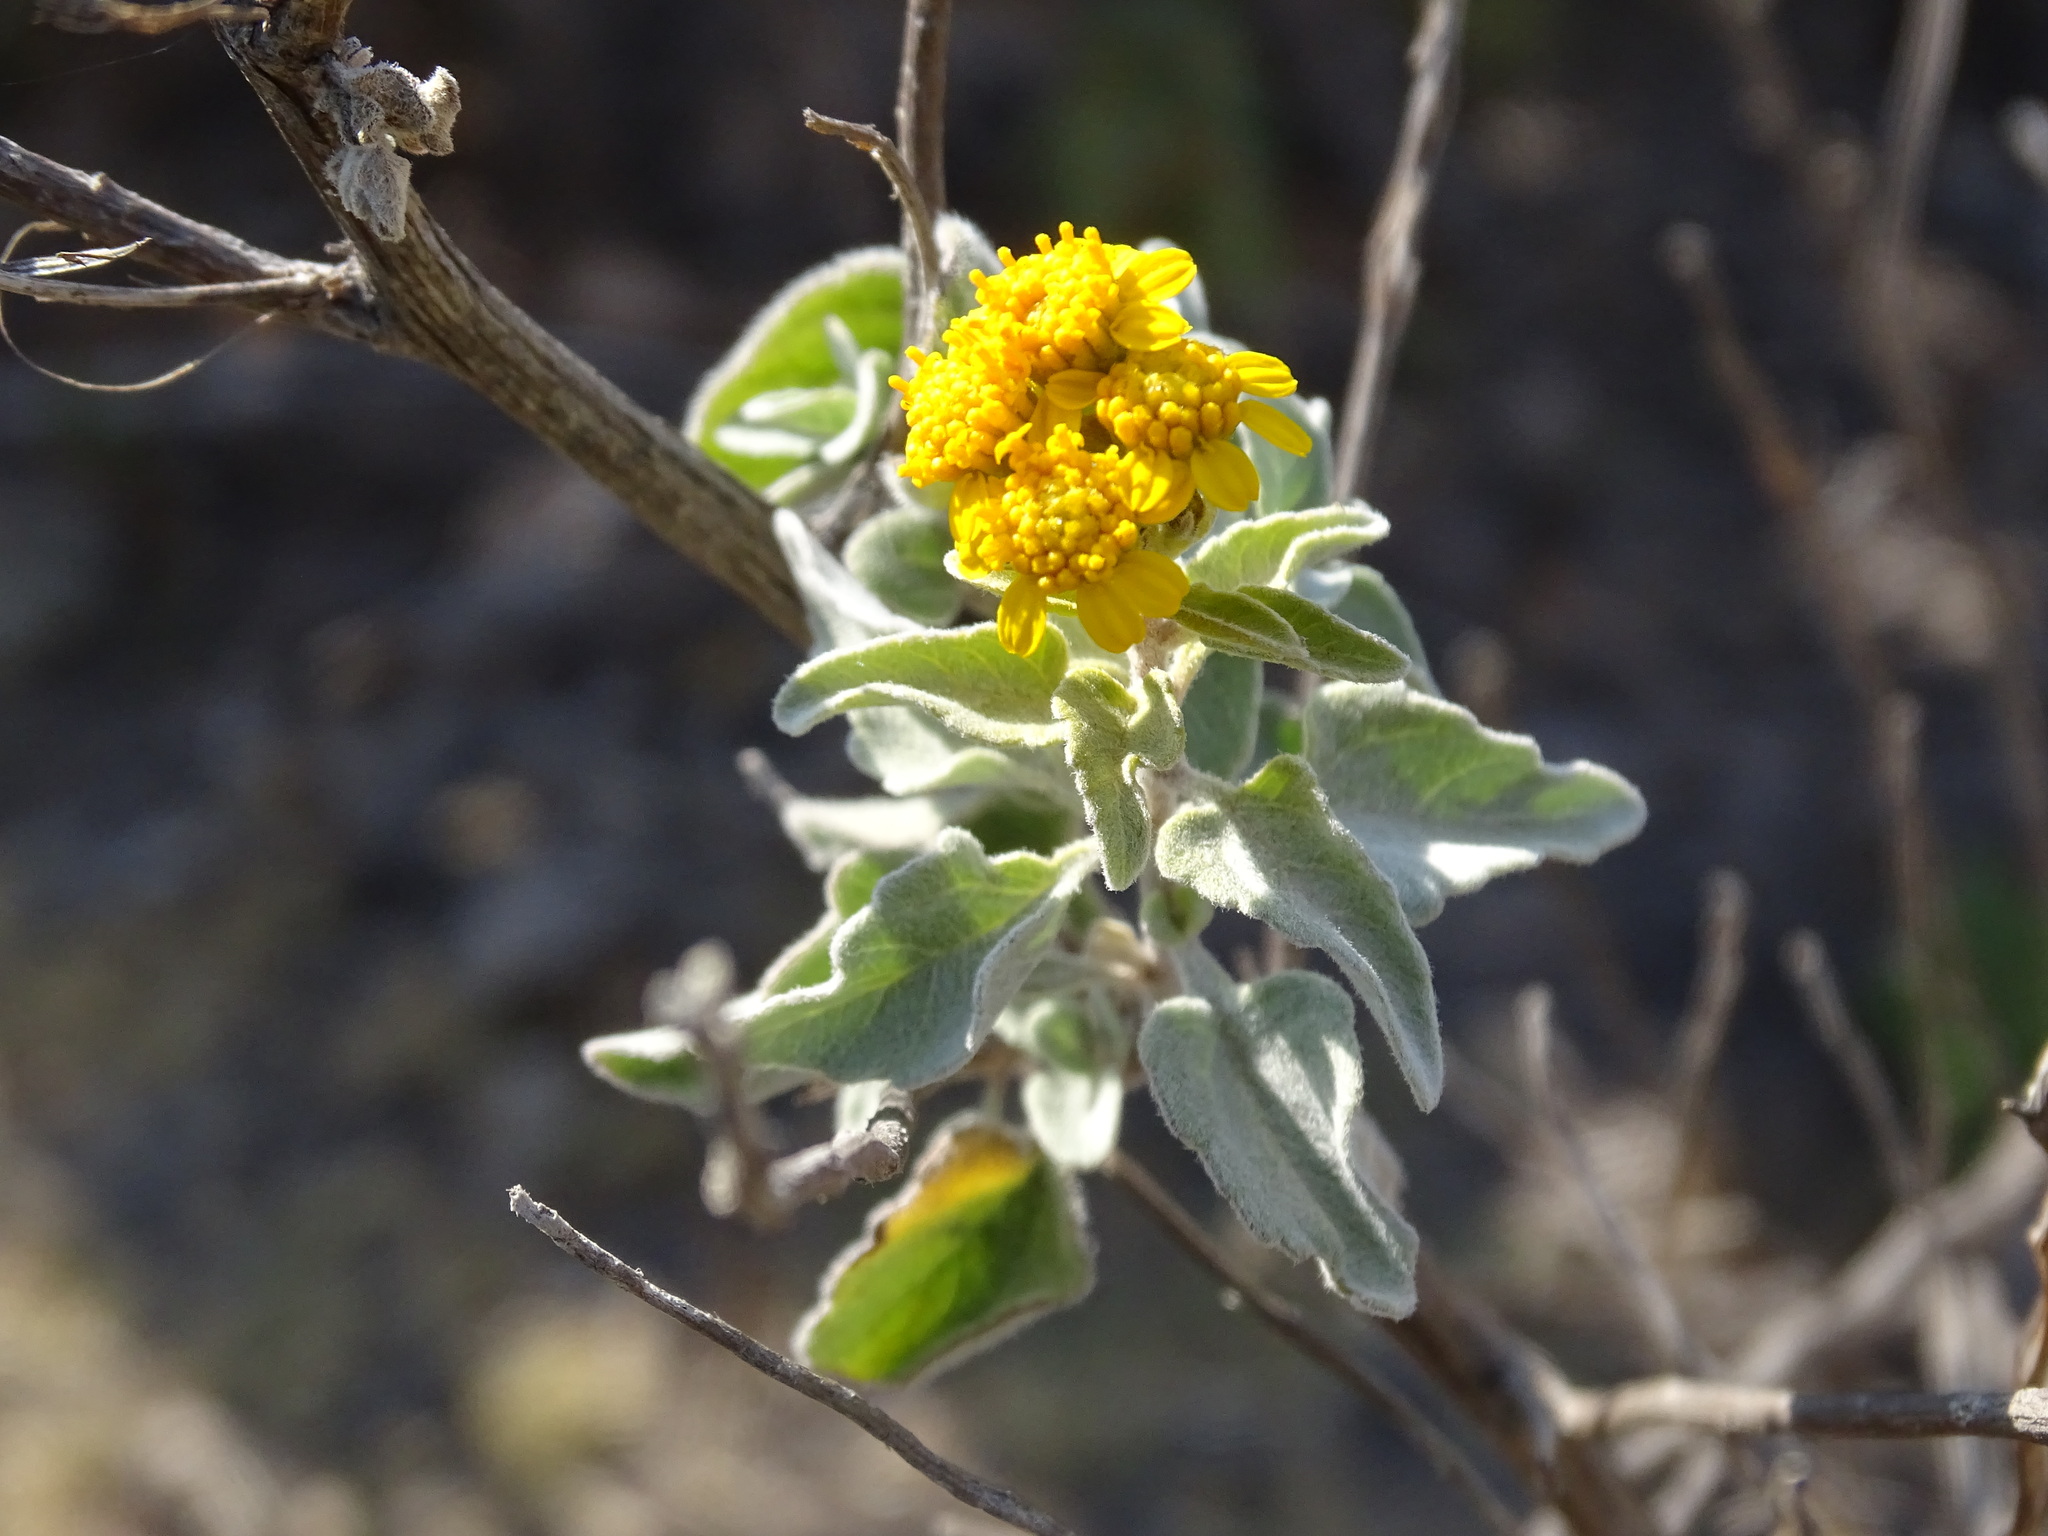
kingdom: Plantae
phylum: Tracheophyta
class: Magnoliopsida
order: Asterales
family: Asteraceae
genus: Zaluzania
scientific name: Zaluzania augusta
